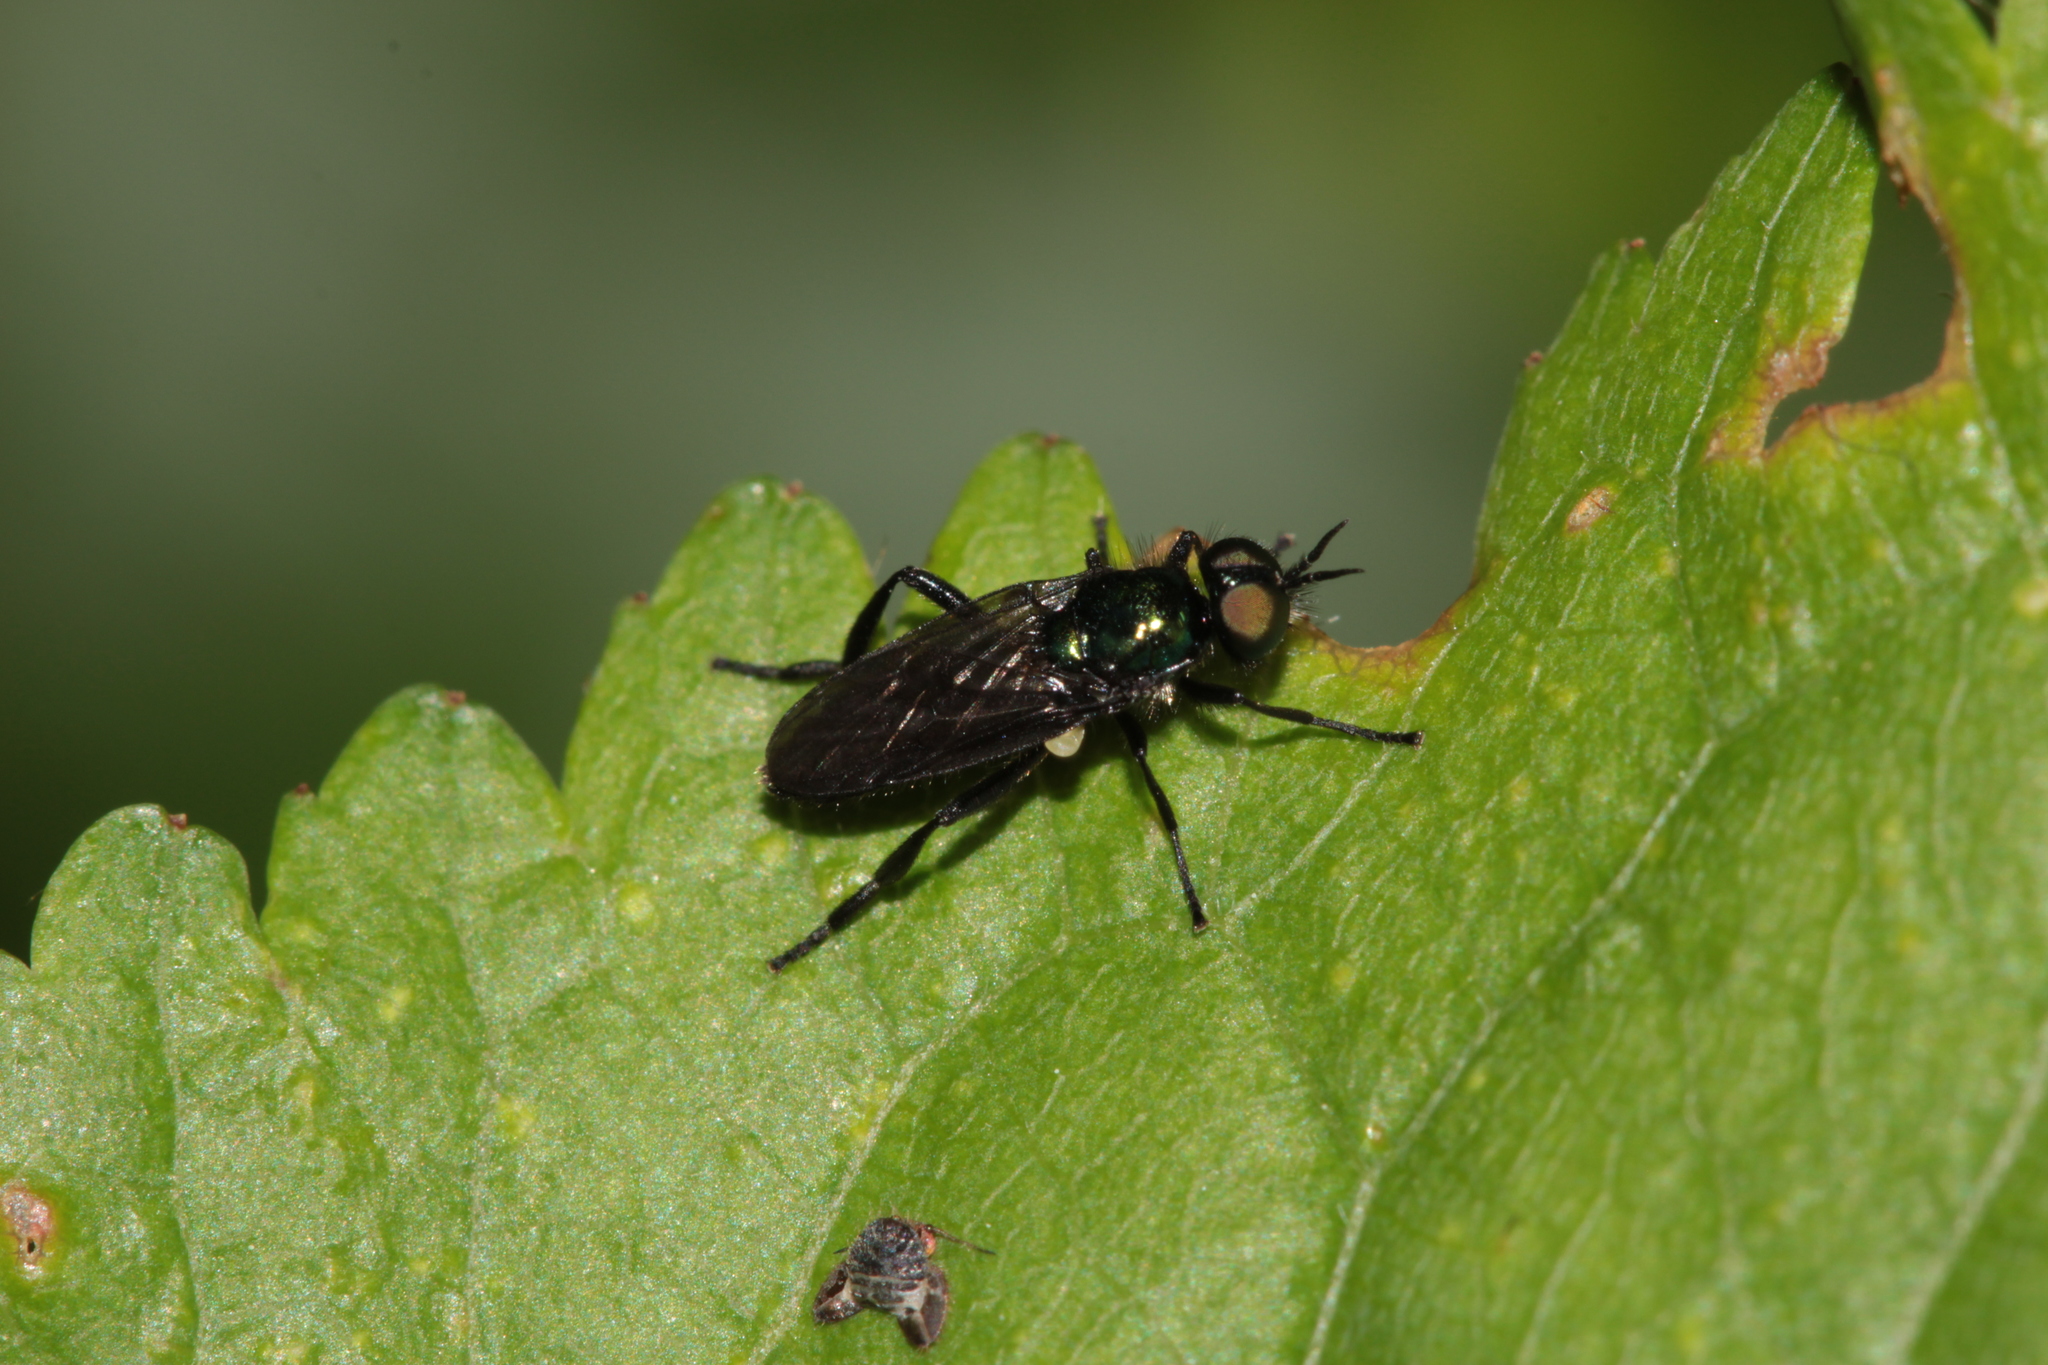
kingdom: Animalia
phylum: Arthropoda
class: Insecta
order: Diptera
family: Stratiomyidae
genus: Actina
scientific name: Actina chalybea
